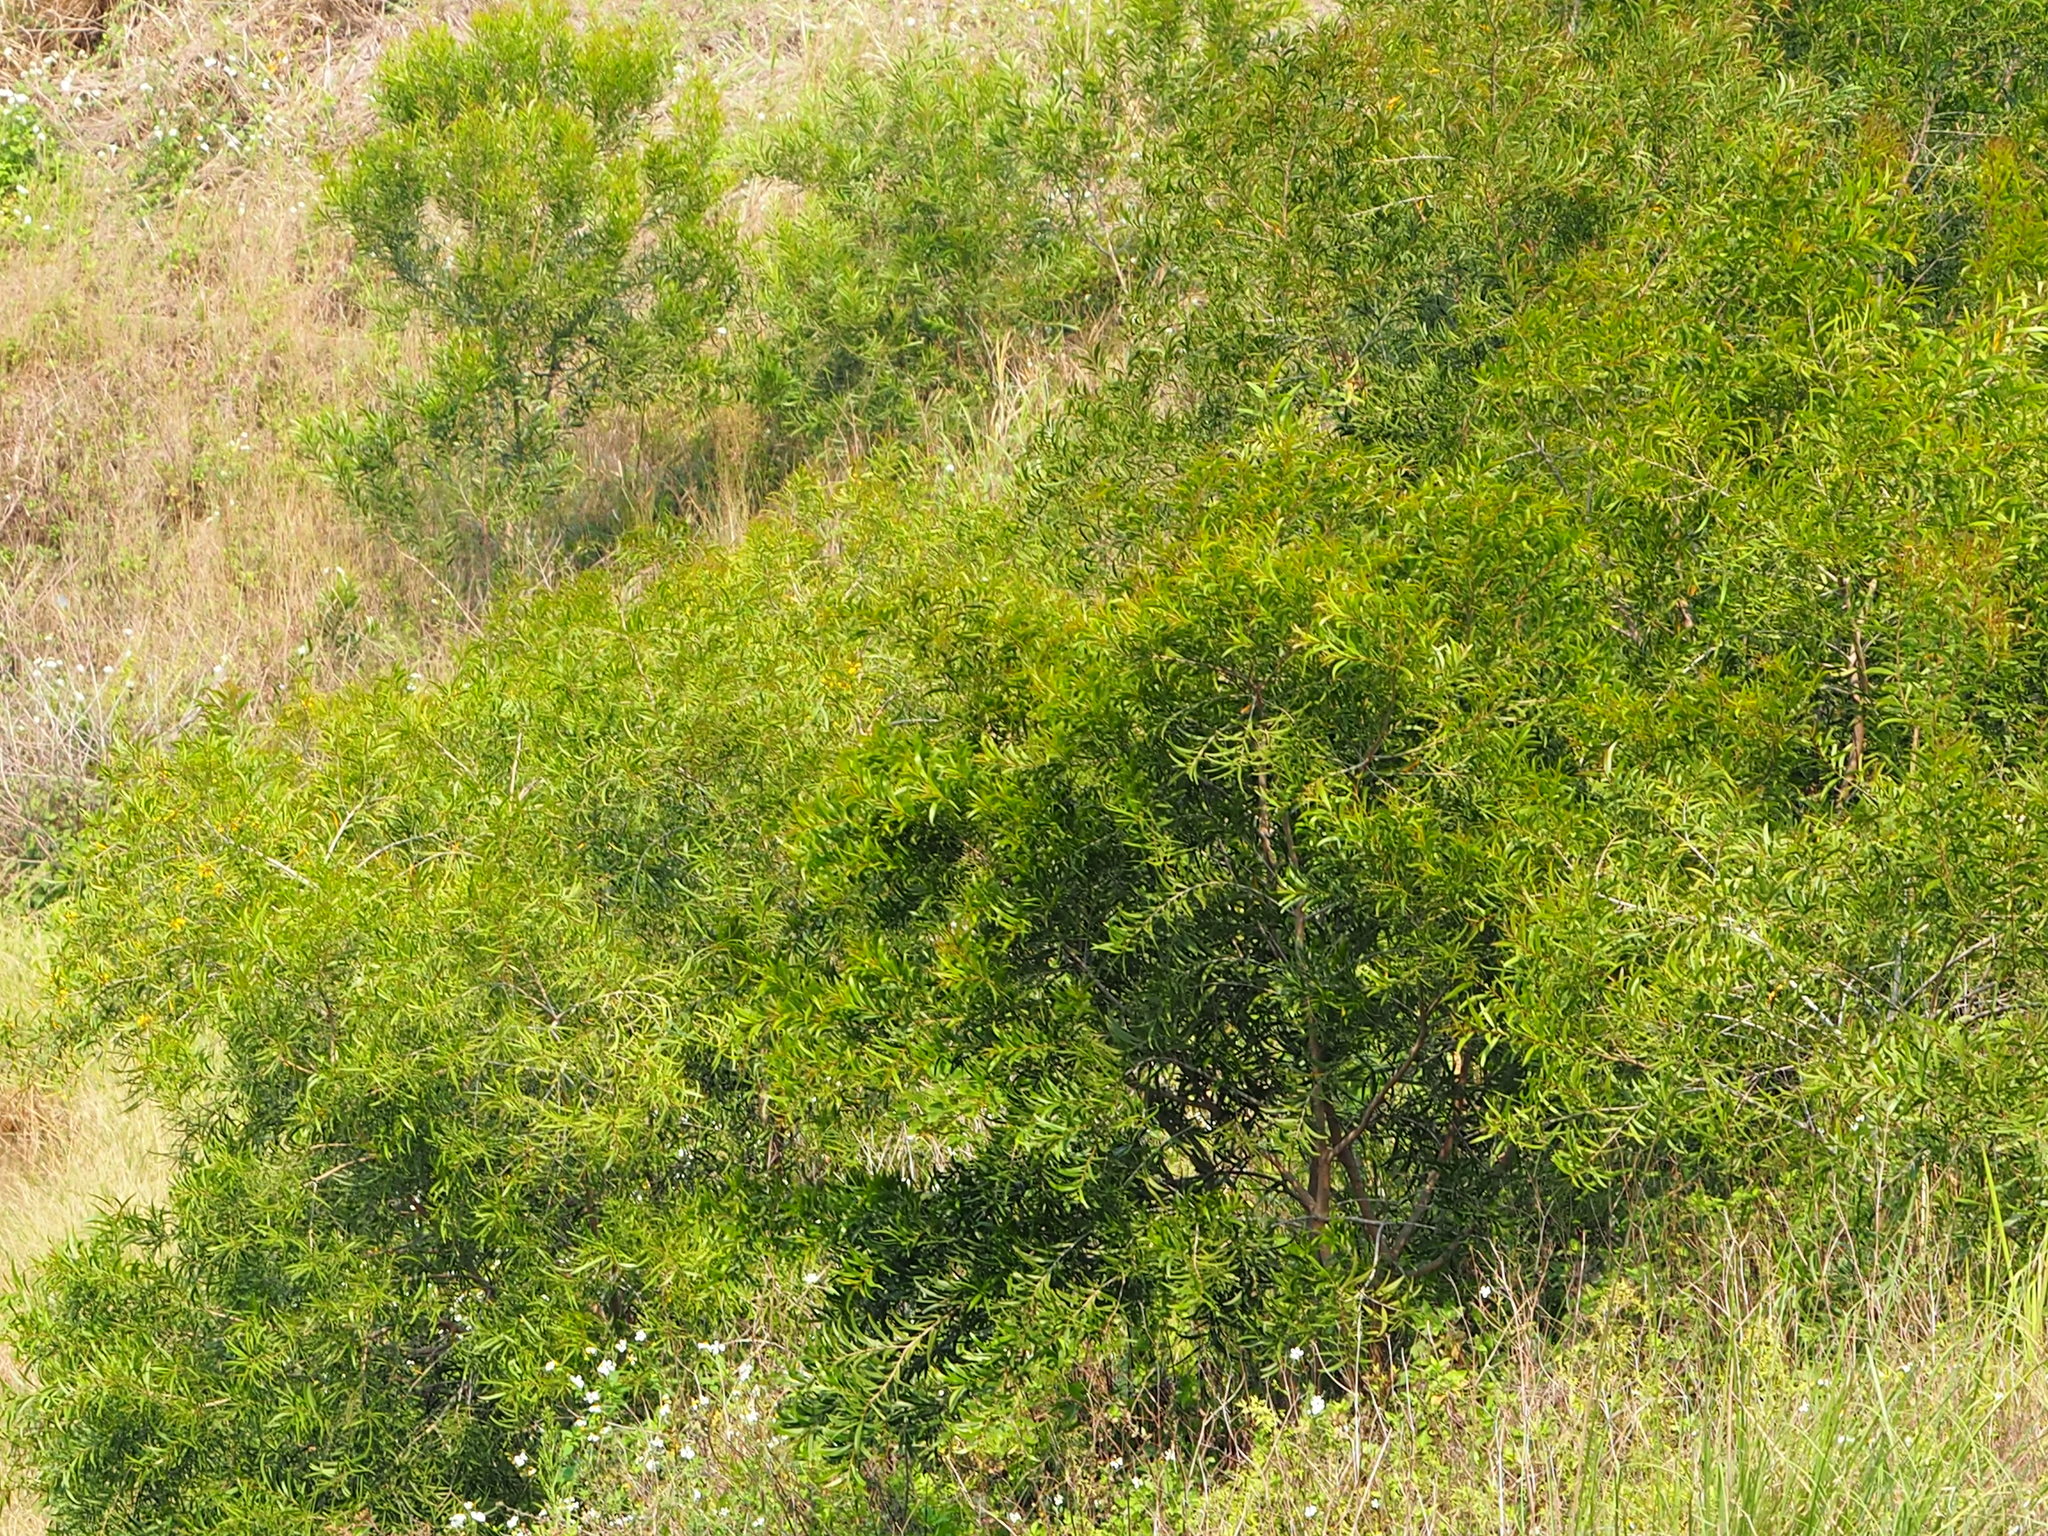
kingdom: Plantae
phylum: Tracheophyta
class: Magnoliopsida
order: Fabales
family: Fabaceae
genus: Acacia
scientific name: Acacia confusa
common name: Formosan koa
